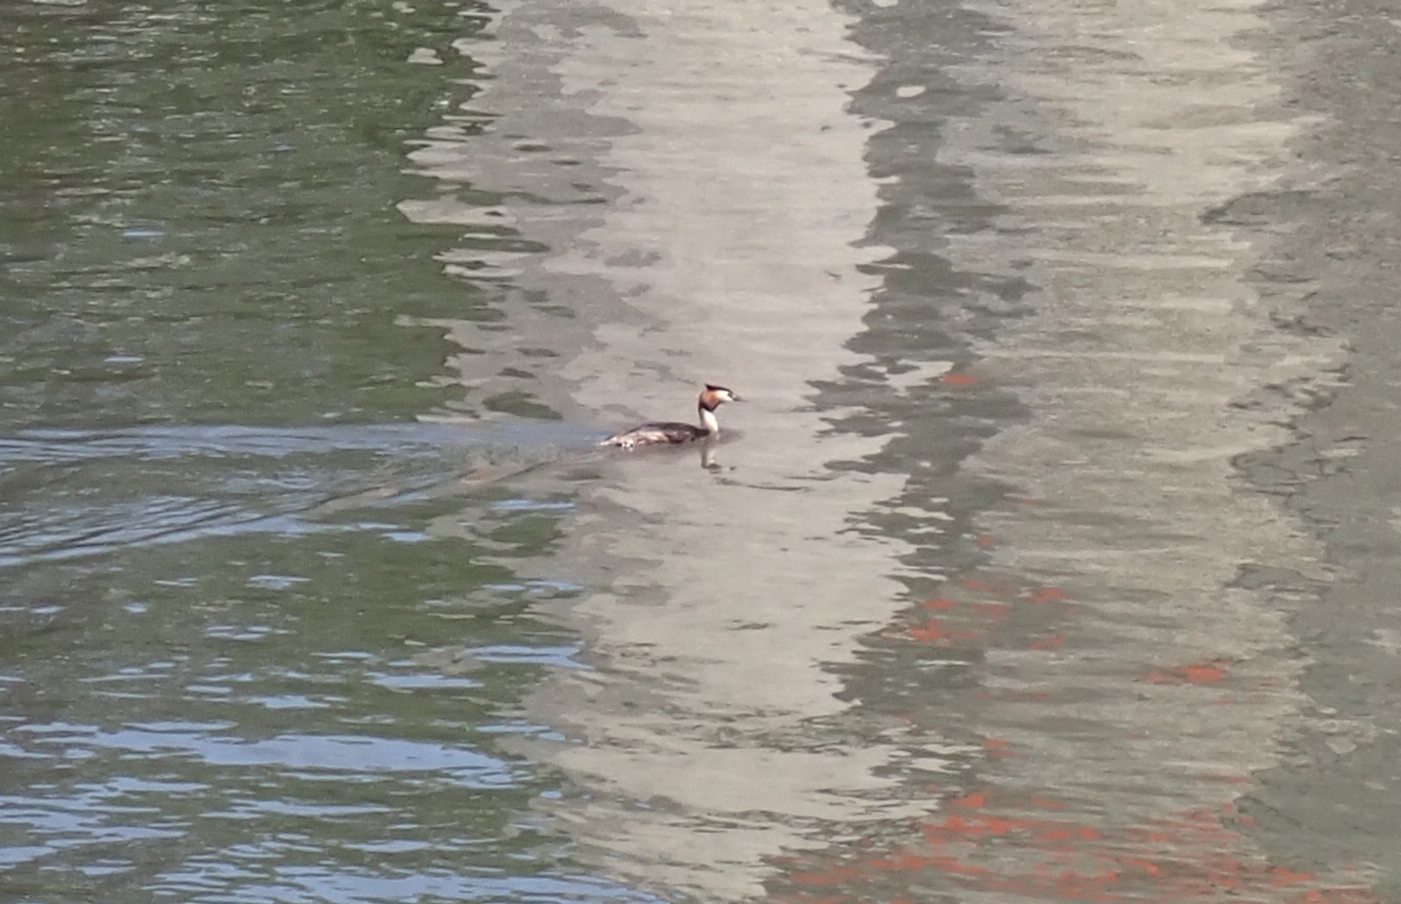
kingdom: Animalia
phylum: Chordata
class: Aves
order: Podicipediformes
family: Podicipedidae
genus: Podiceps
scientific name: Podiceps cristatus
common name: Great crested grebe
